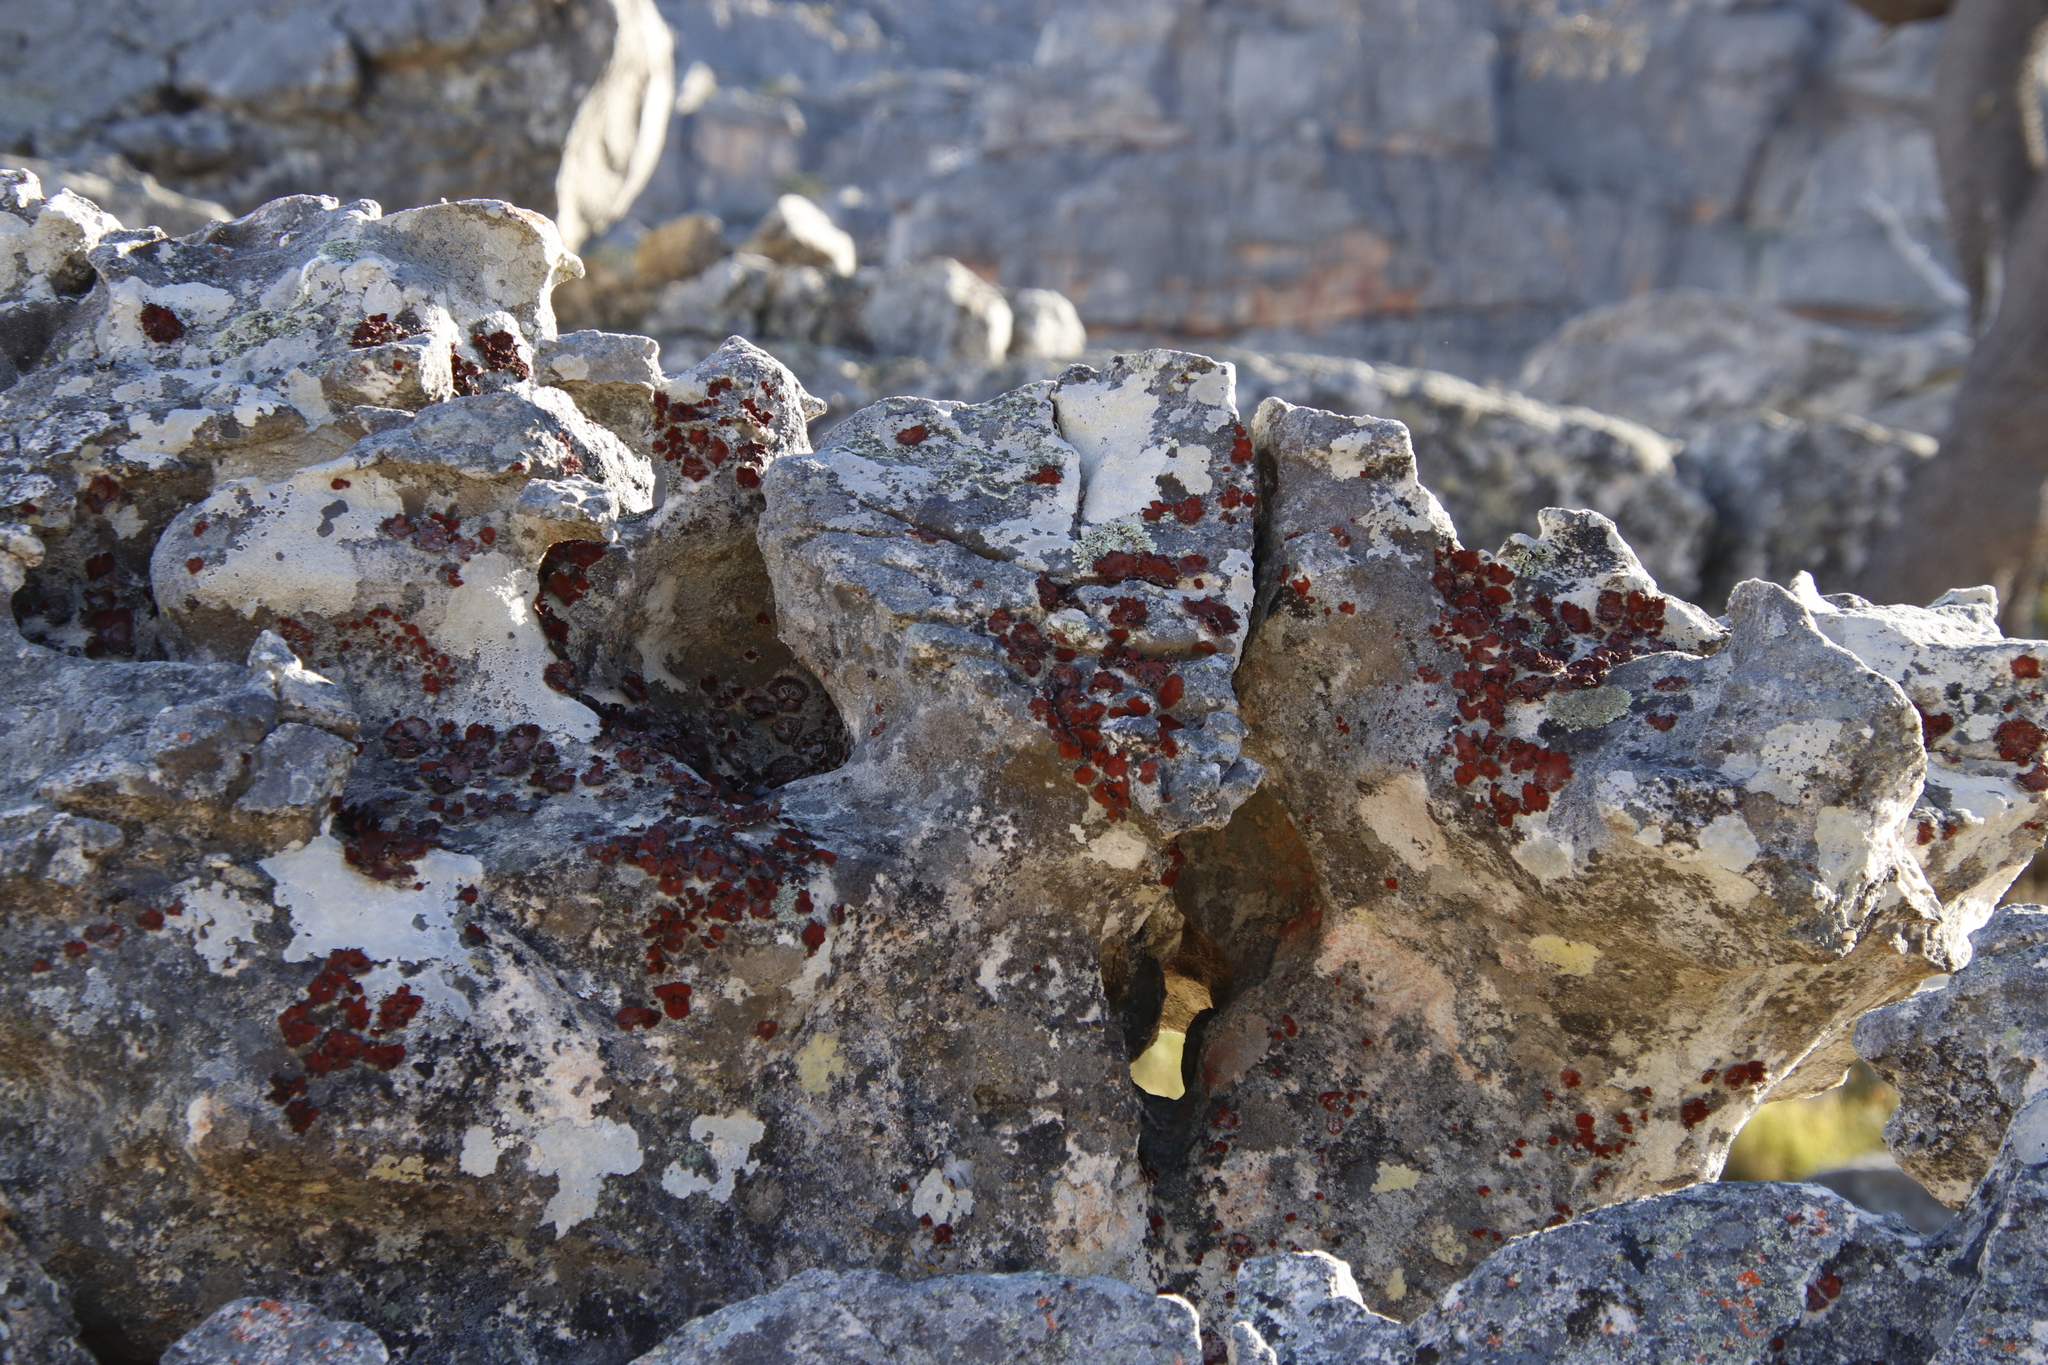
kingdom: Fungi
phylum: Ascomycota
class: Lecanoromycetes
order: Umbilicariales
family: Umbilicariaceae
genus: Lasallia
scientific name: Lasallia rubiginosa
